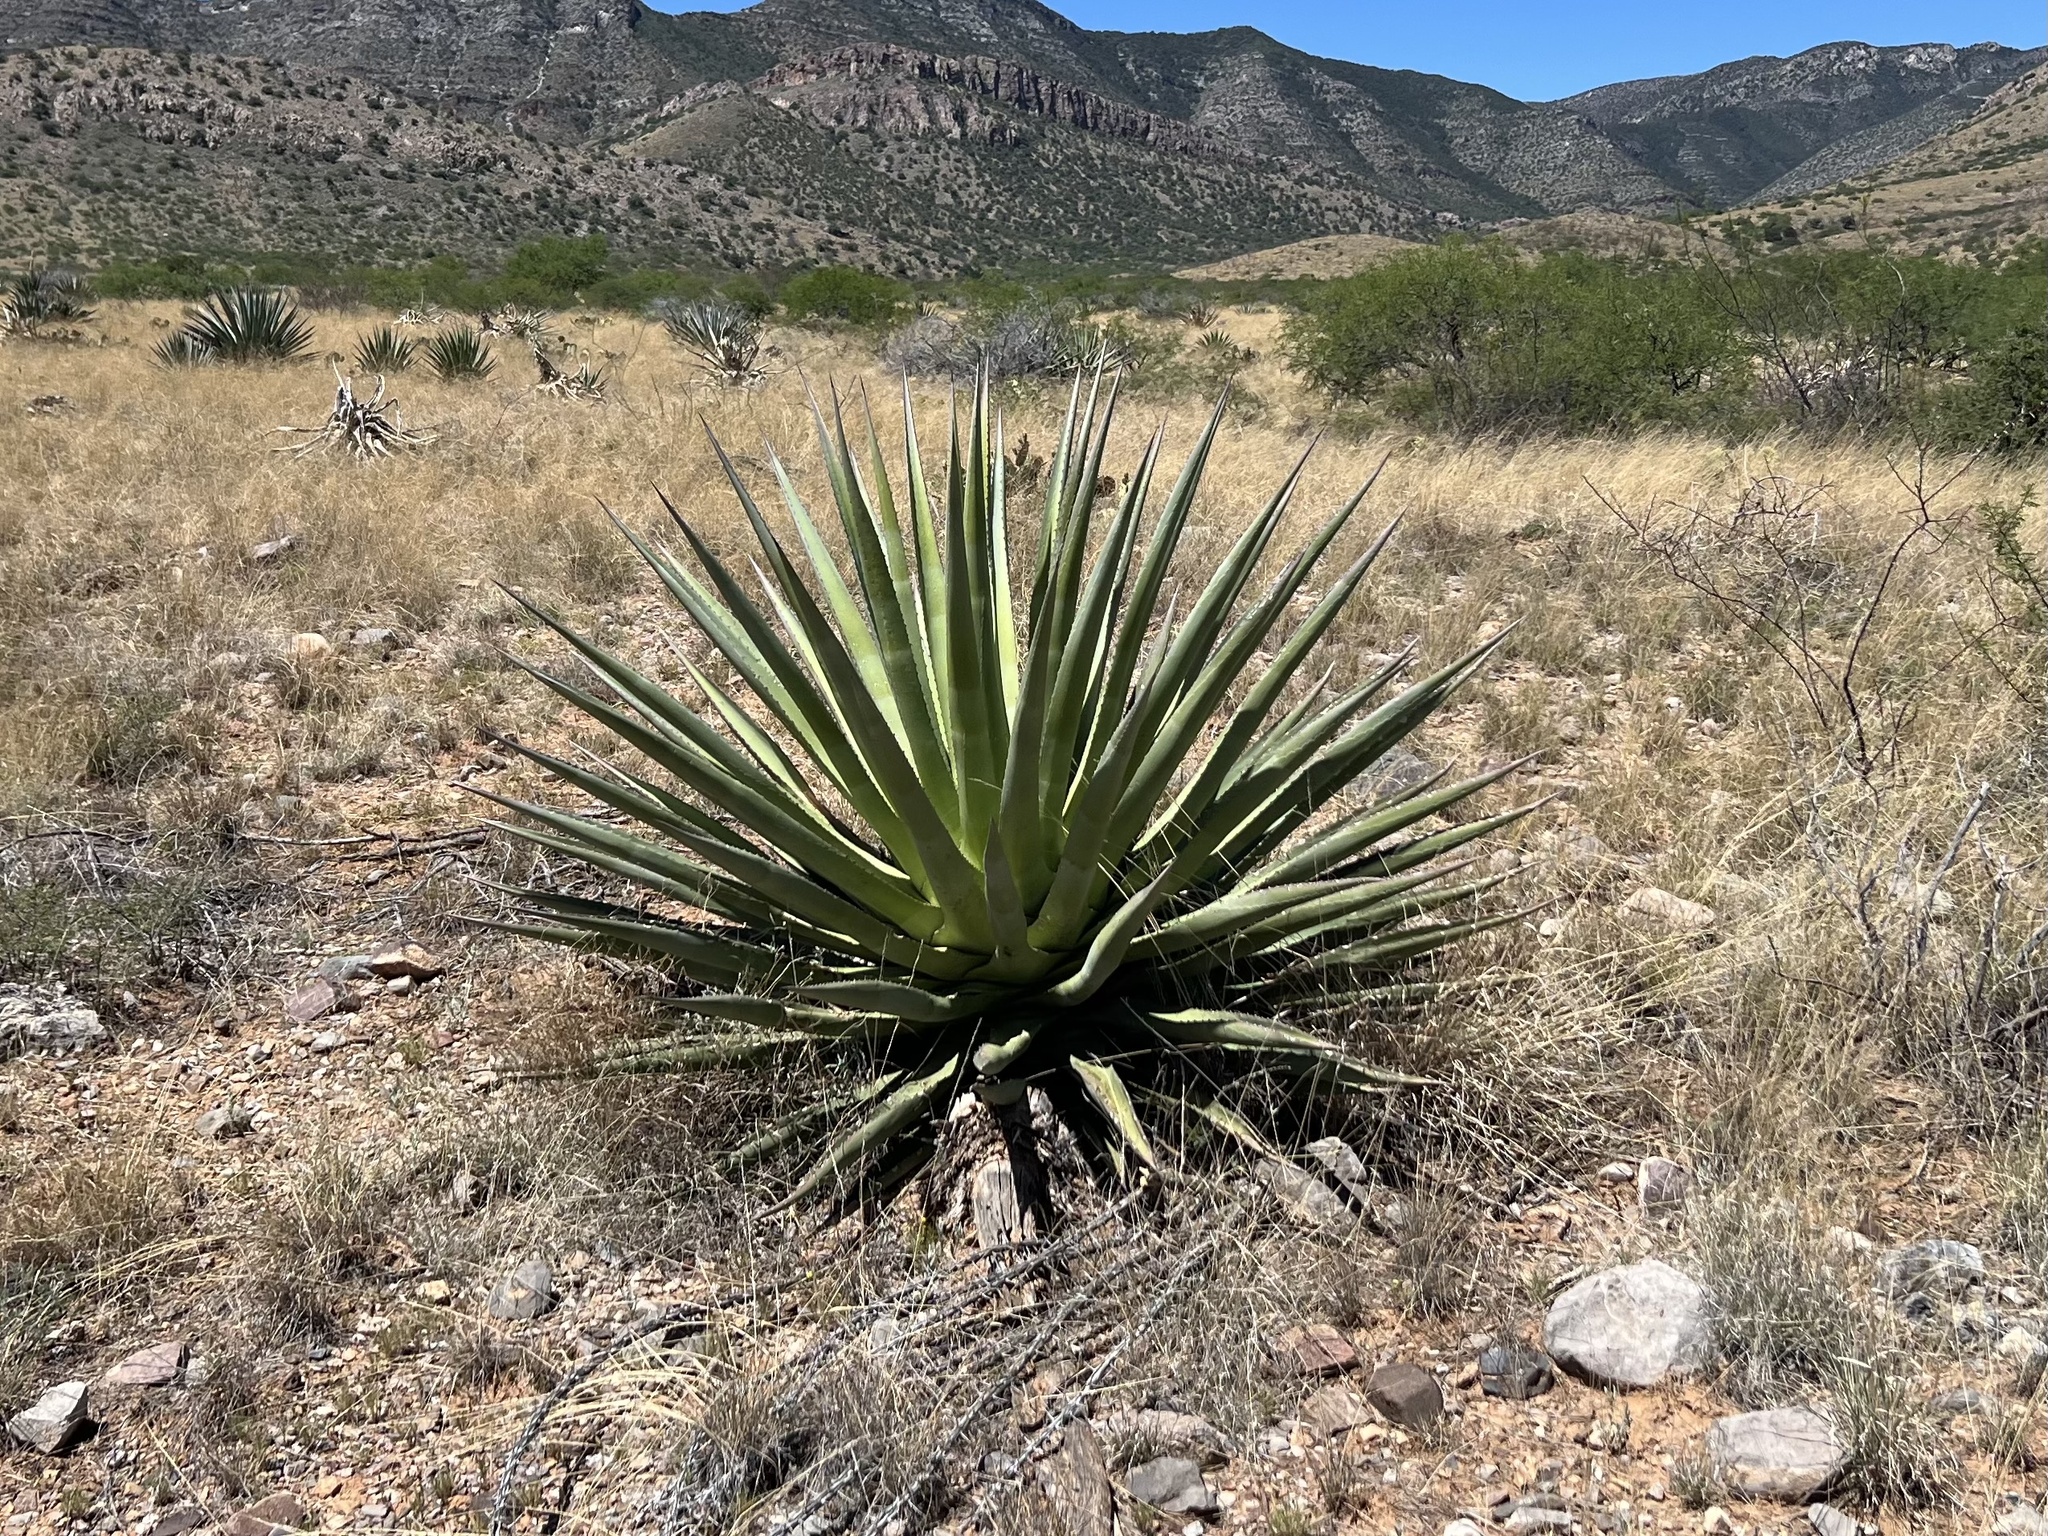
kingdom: Plantae
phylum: Tracheophyta
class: Liliopsida
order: Asparagales
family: Asparagaceae
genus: Agave
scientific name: Agave palmeri
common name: Palmer agave
